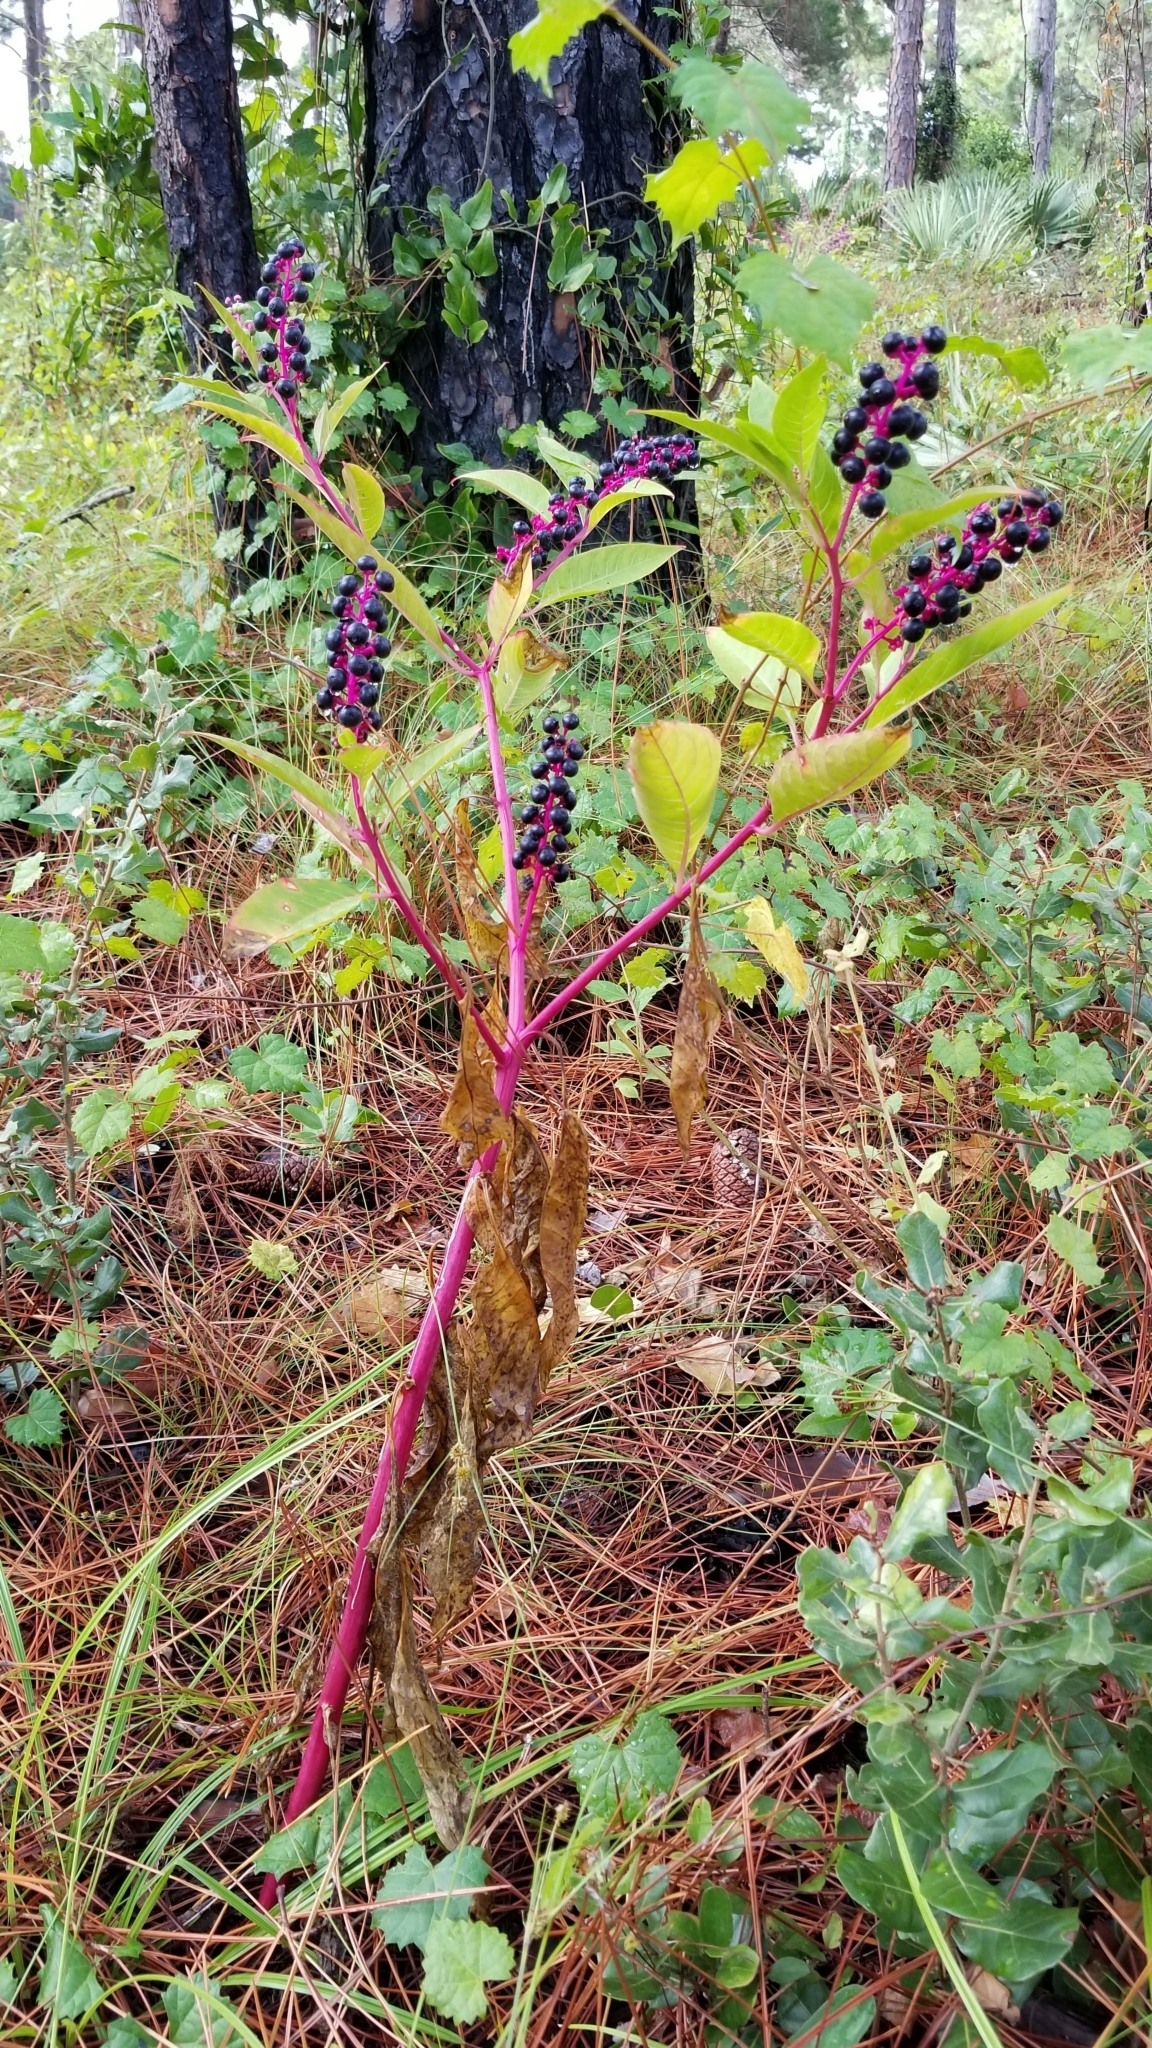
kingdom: Plantae
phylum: Tracheophyta
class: Magnoliopsida
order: Caryophyllales
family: Phytolaccaceae
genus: Phytolacca
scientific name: Phytolacca americana
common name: American pokeweed
